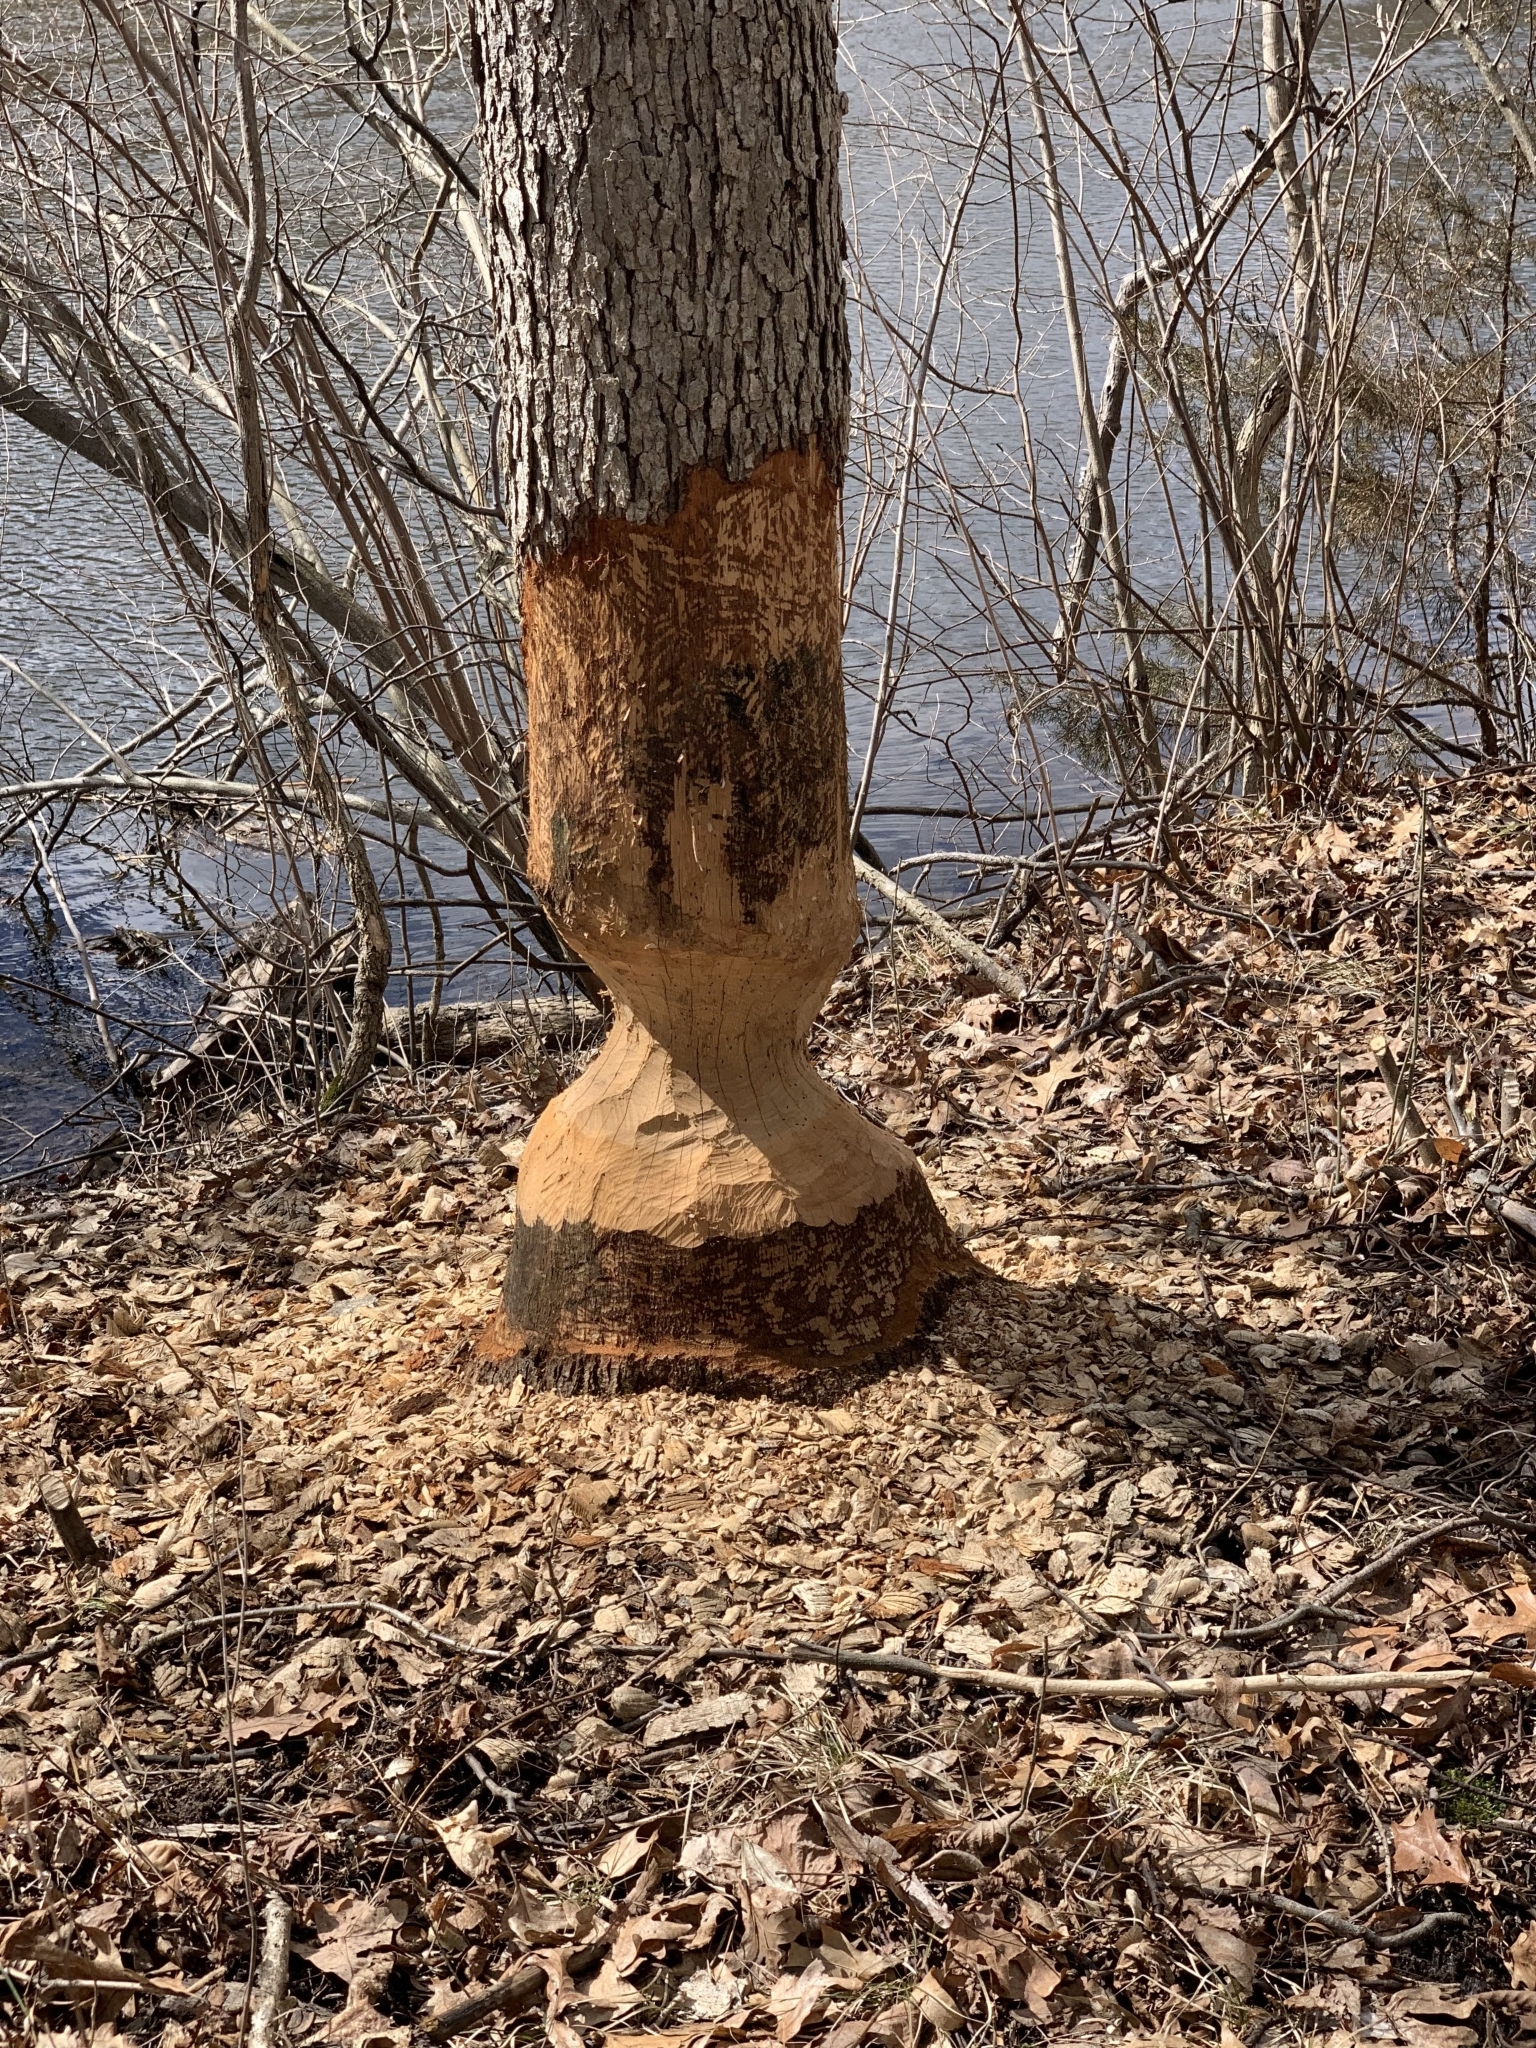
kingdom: Animalia
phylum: Chordata
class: Mammalia
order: Rodentia
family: Castoridae
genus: Castor
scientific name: Castor canadensis
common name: American beaver
